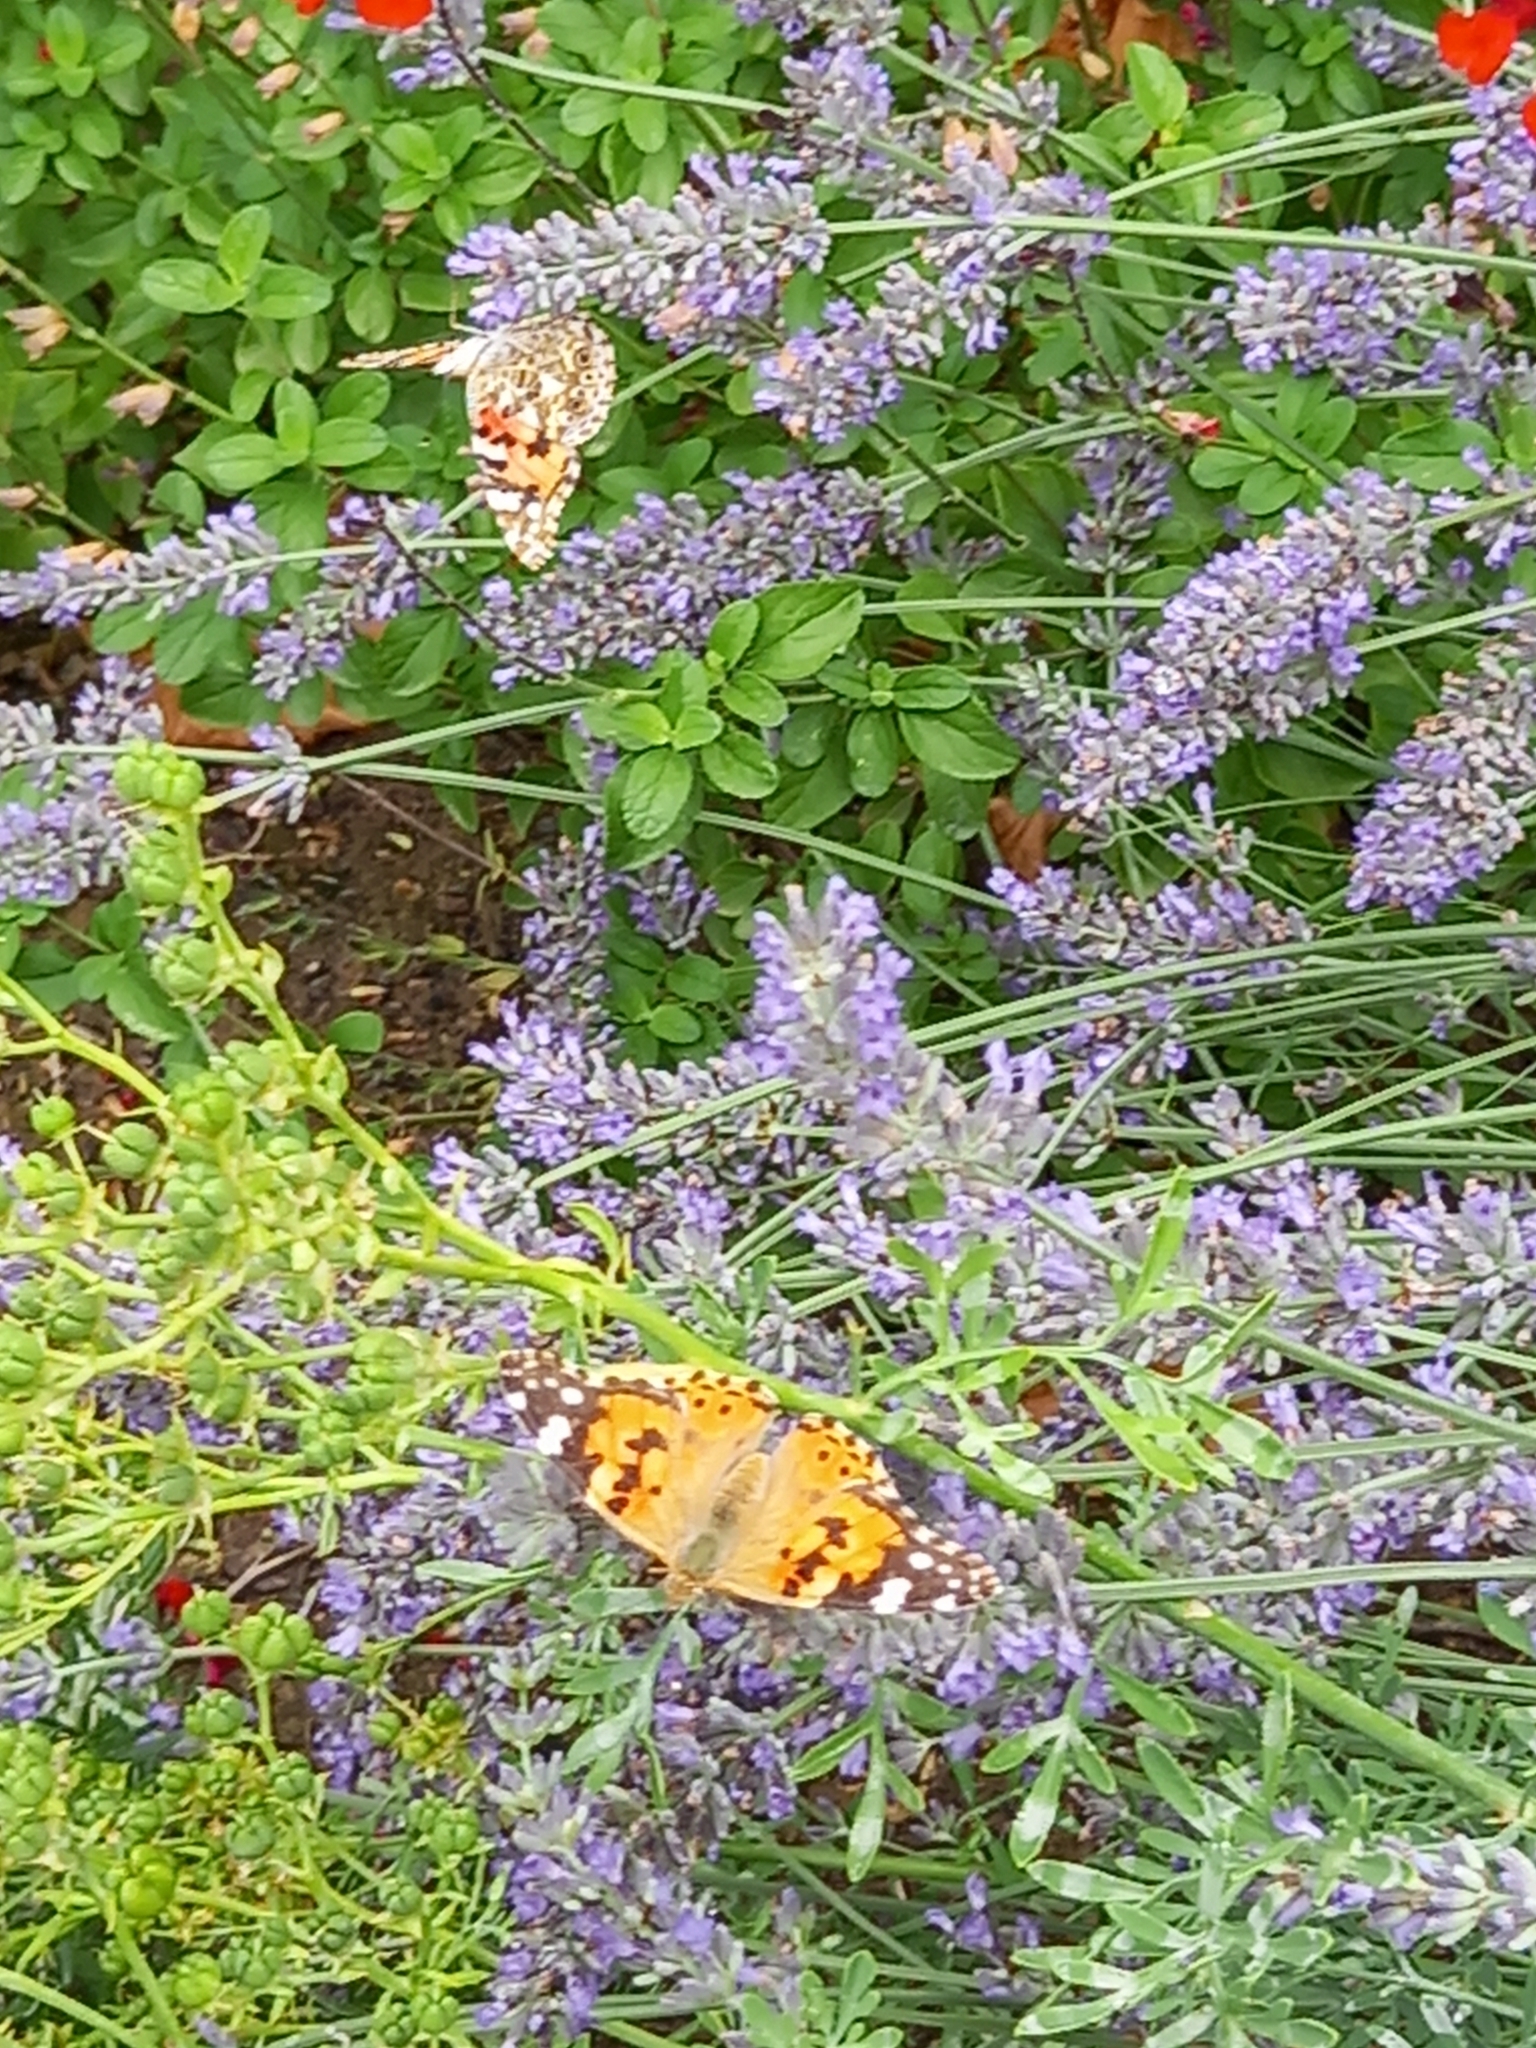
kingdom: Animalia
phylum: Arthropoda
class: Insecta
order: Lepidoptera
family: Nymphalidae
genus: Vanessa
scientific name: Vanessa cardui
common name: Painted lady
